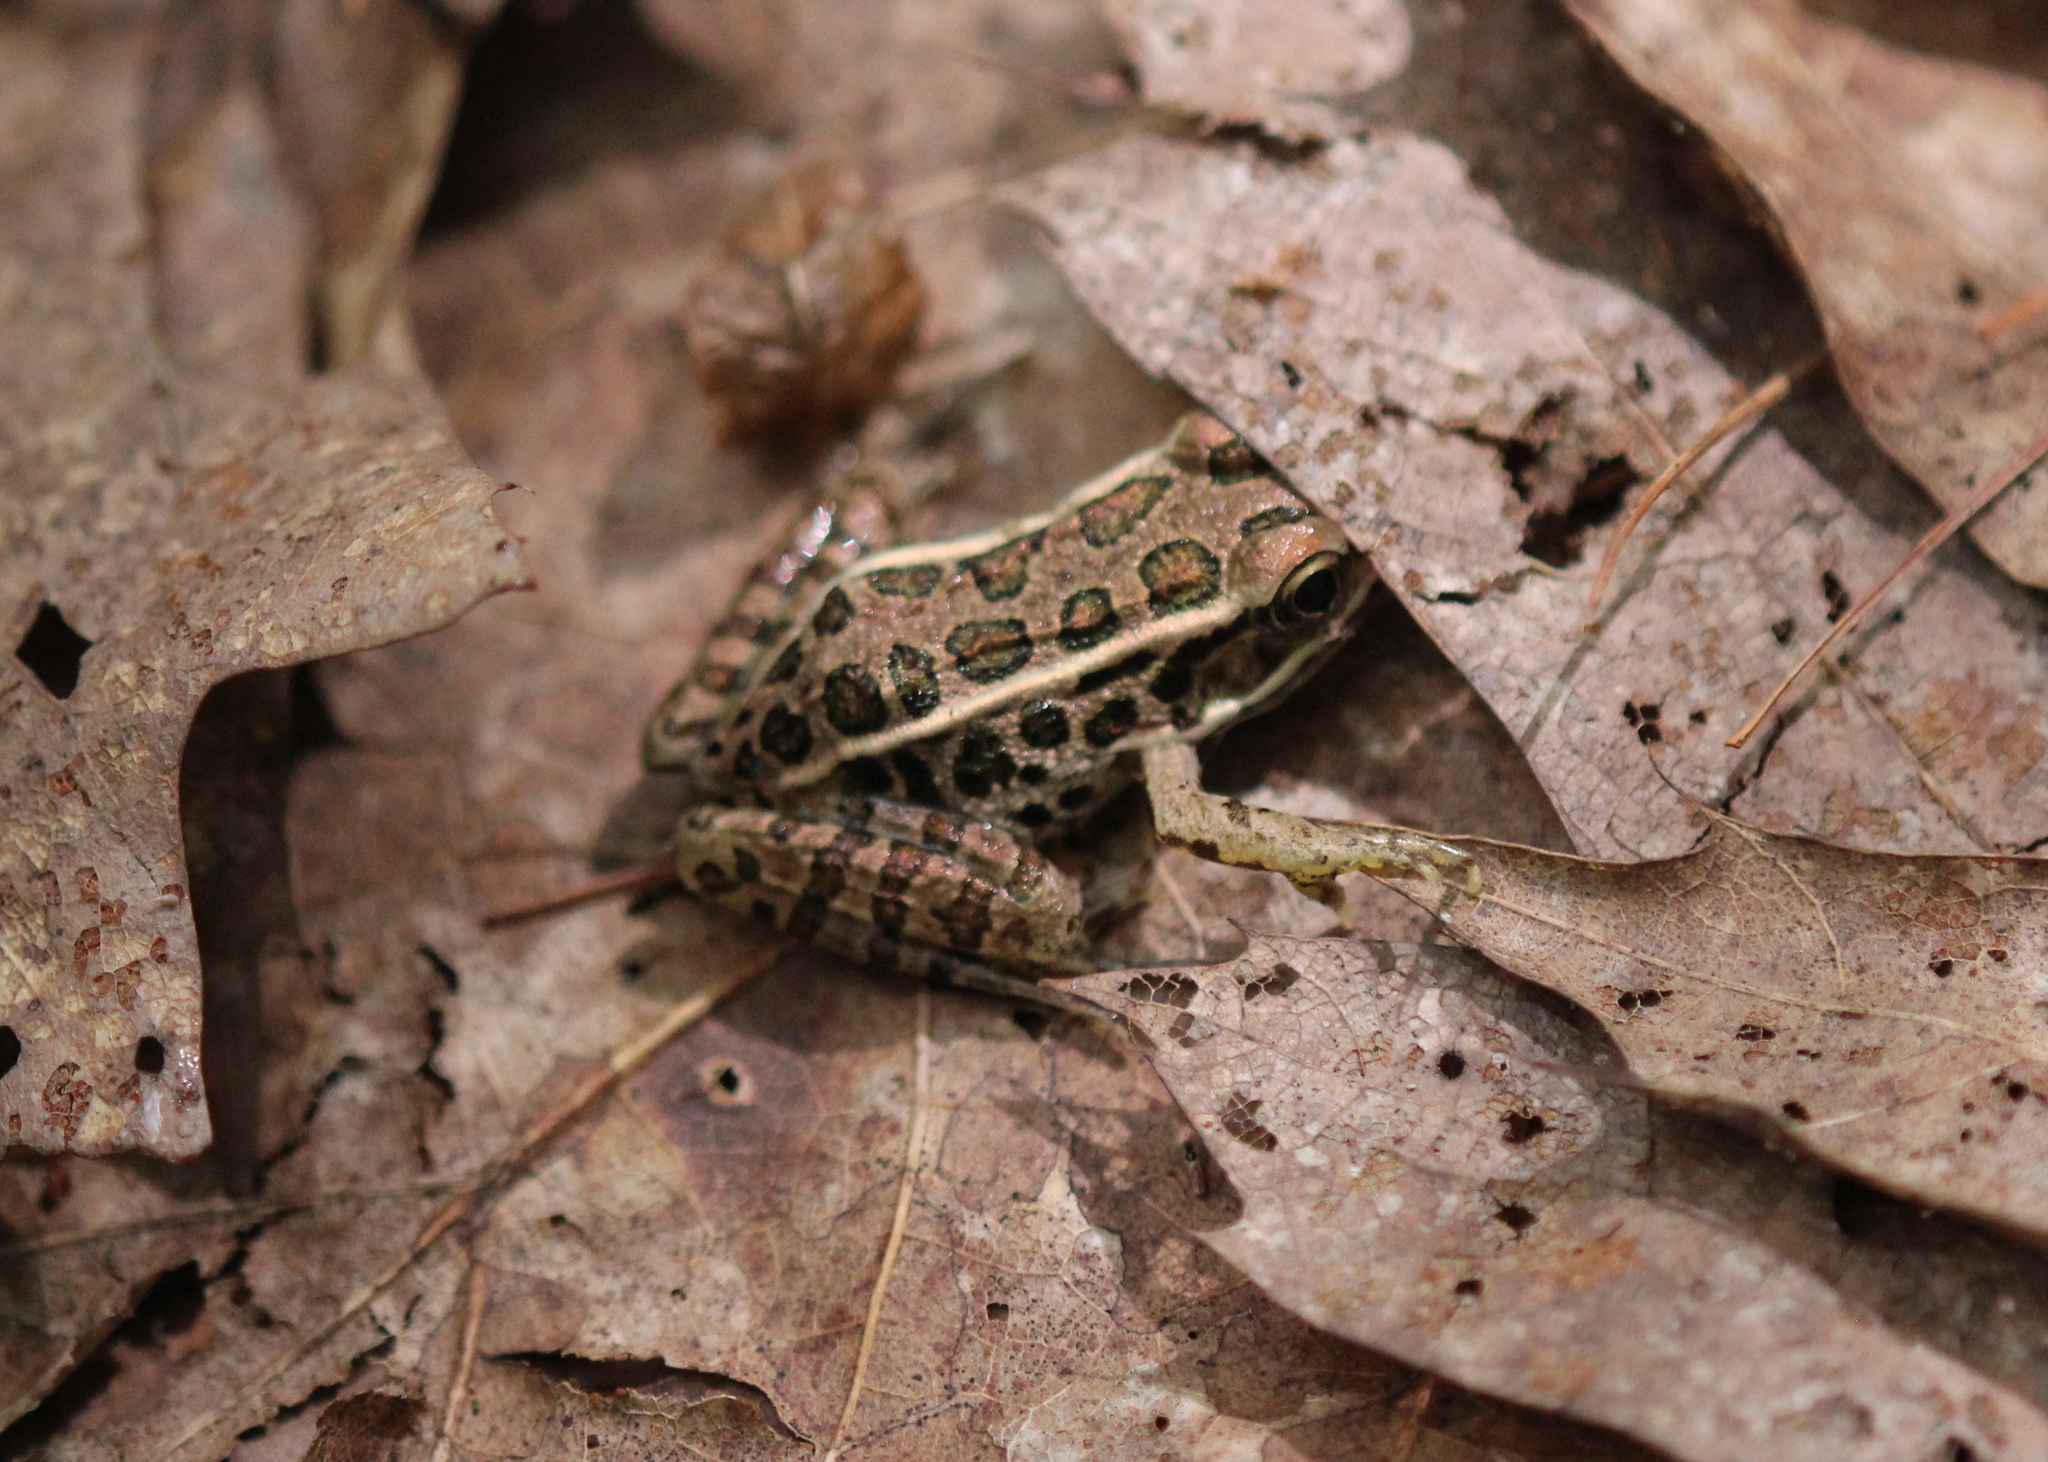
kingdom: Animalia
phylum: Chordata
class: Amphibia
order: Anura
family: Ranidae
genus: Lithobates
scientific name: Lithobates palustris
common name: Pickerel frog
